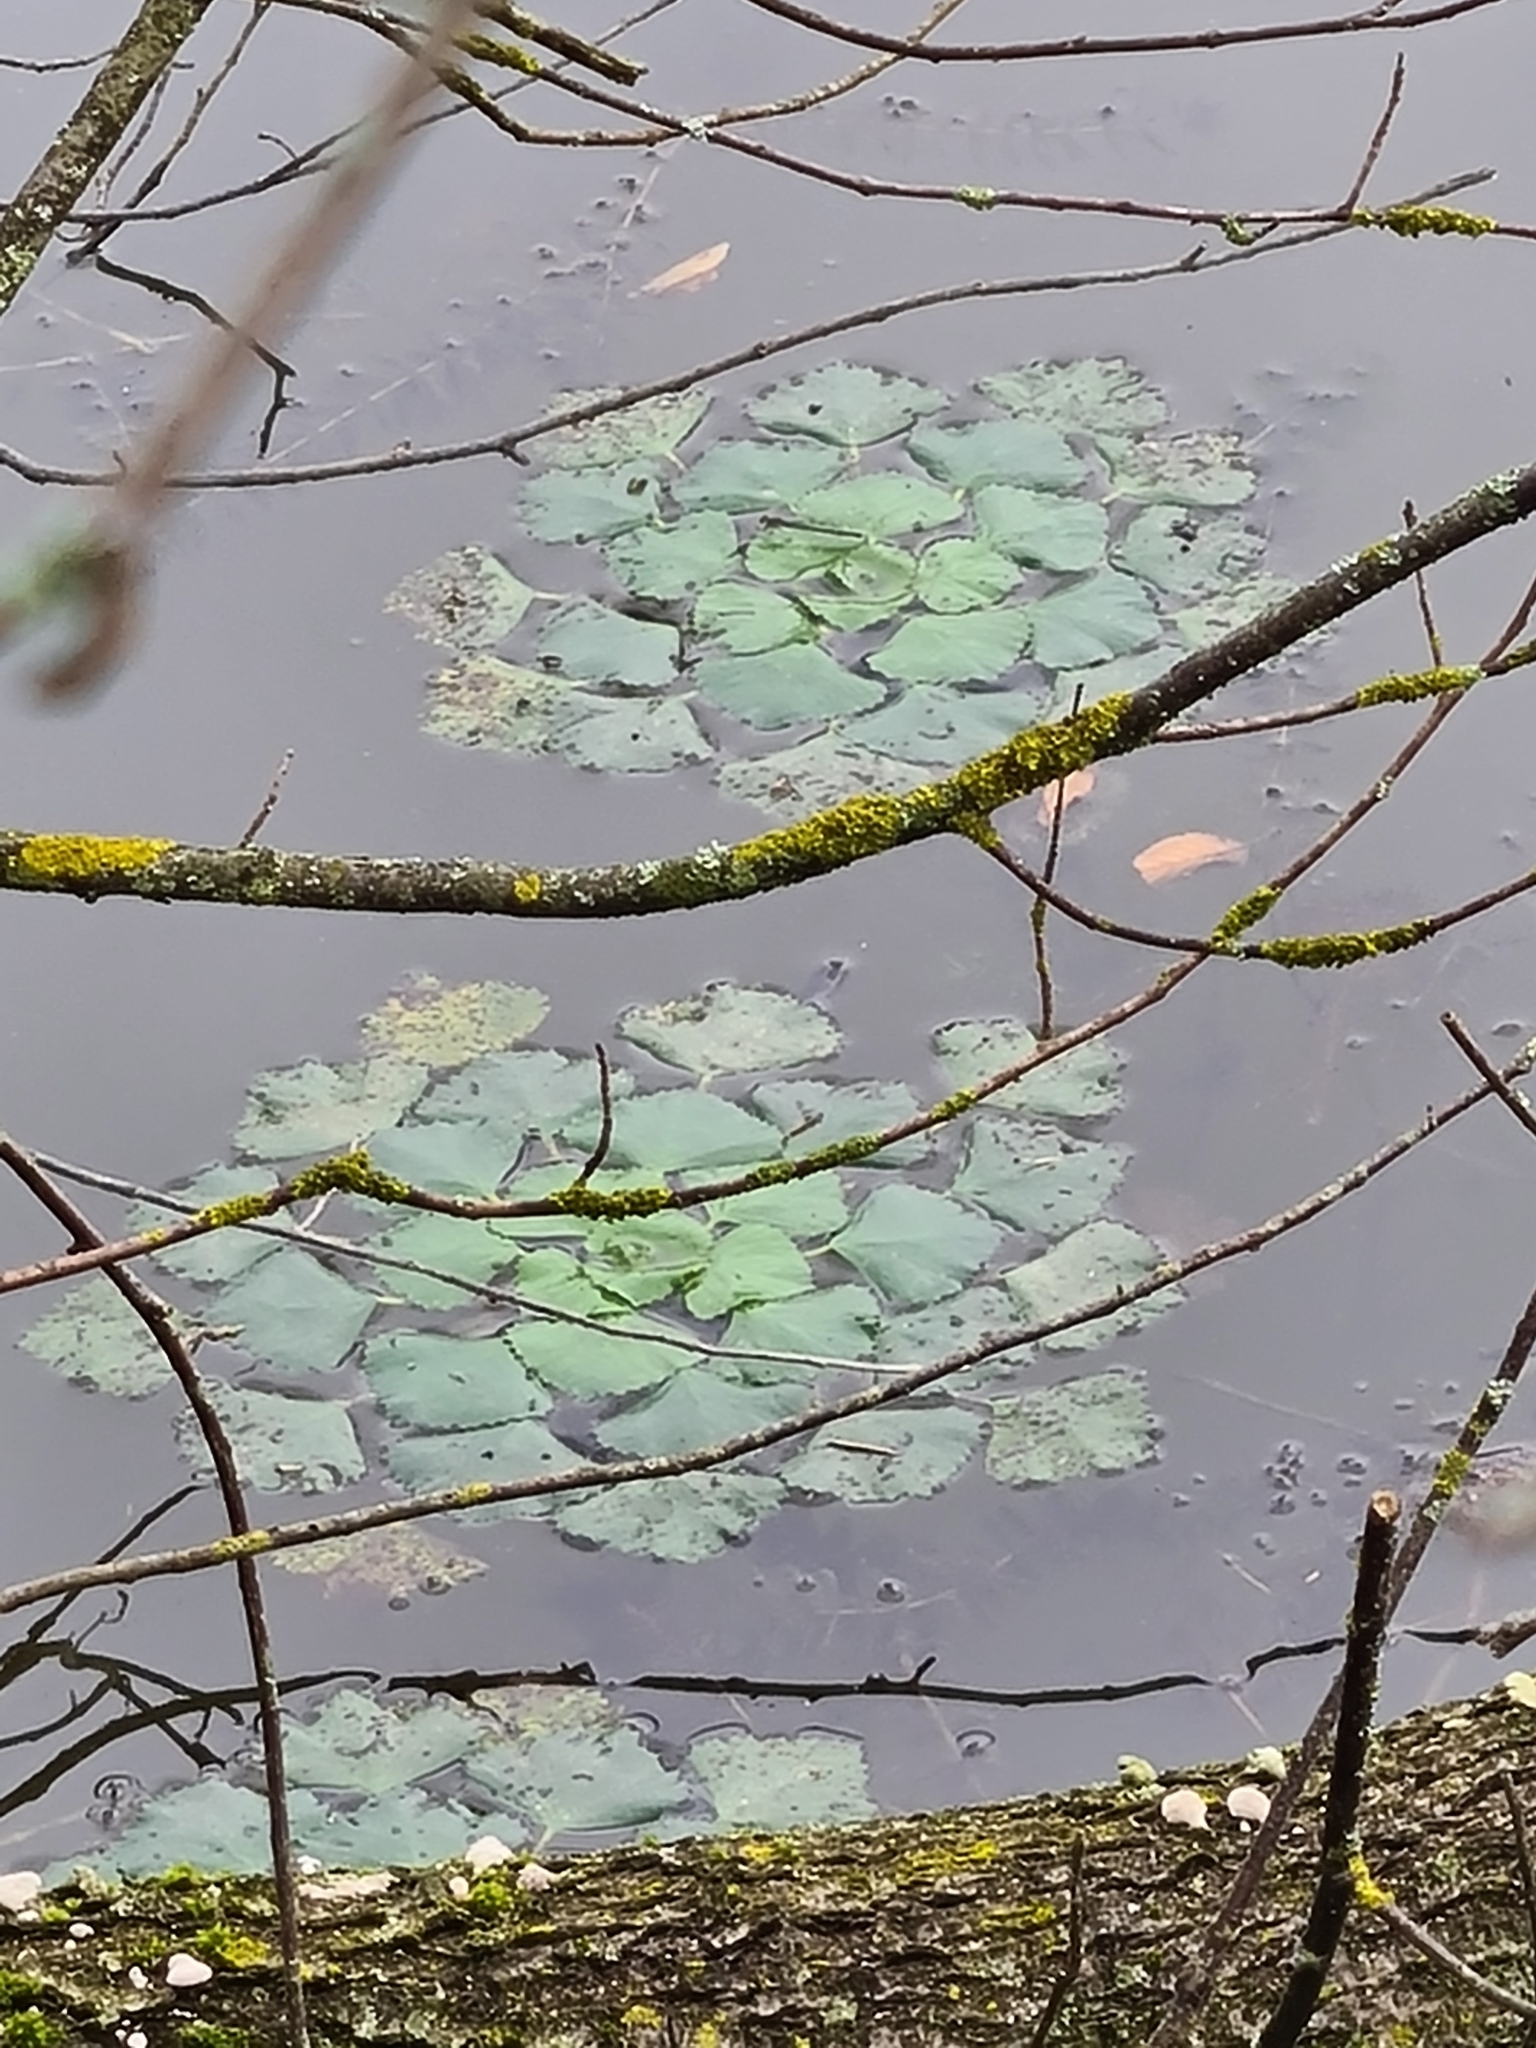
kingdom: Plantae
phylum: Tracheophyta
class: Magnoliopsida
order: Myrtales
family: Lythraceae
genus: Trapa
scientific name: Trapa natans
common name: Water chestnut
